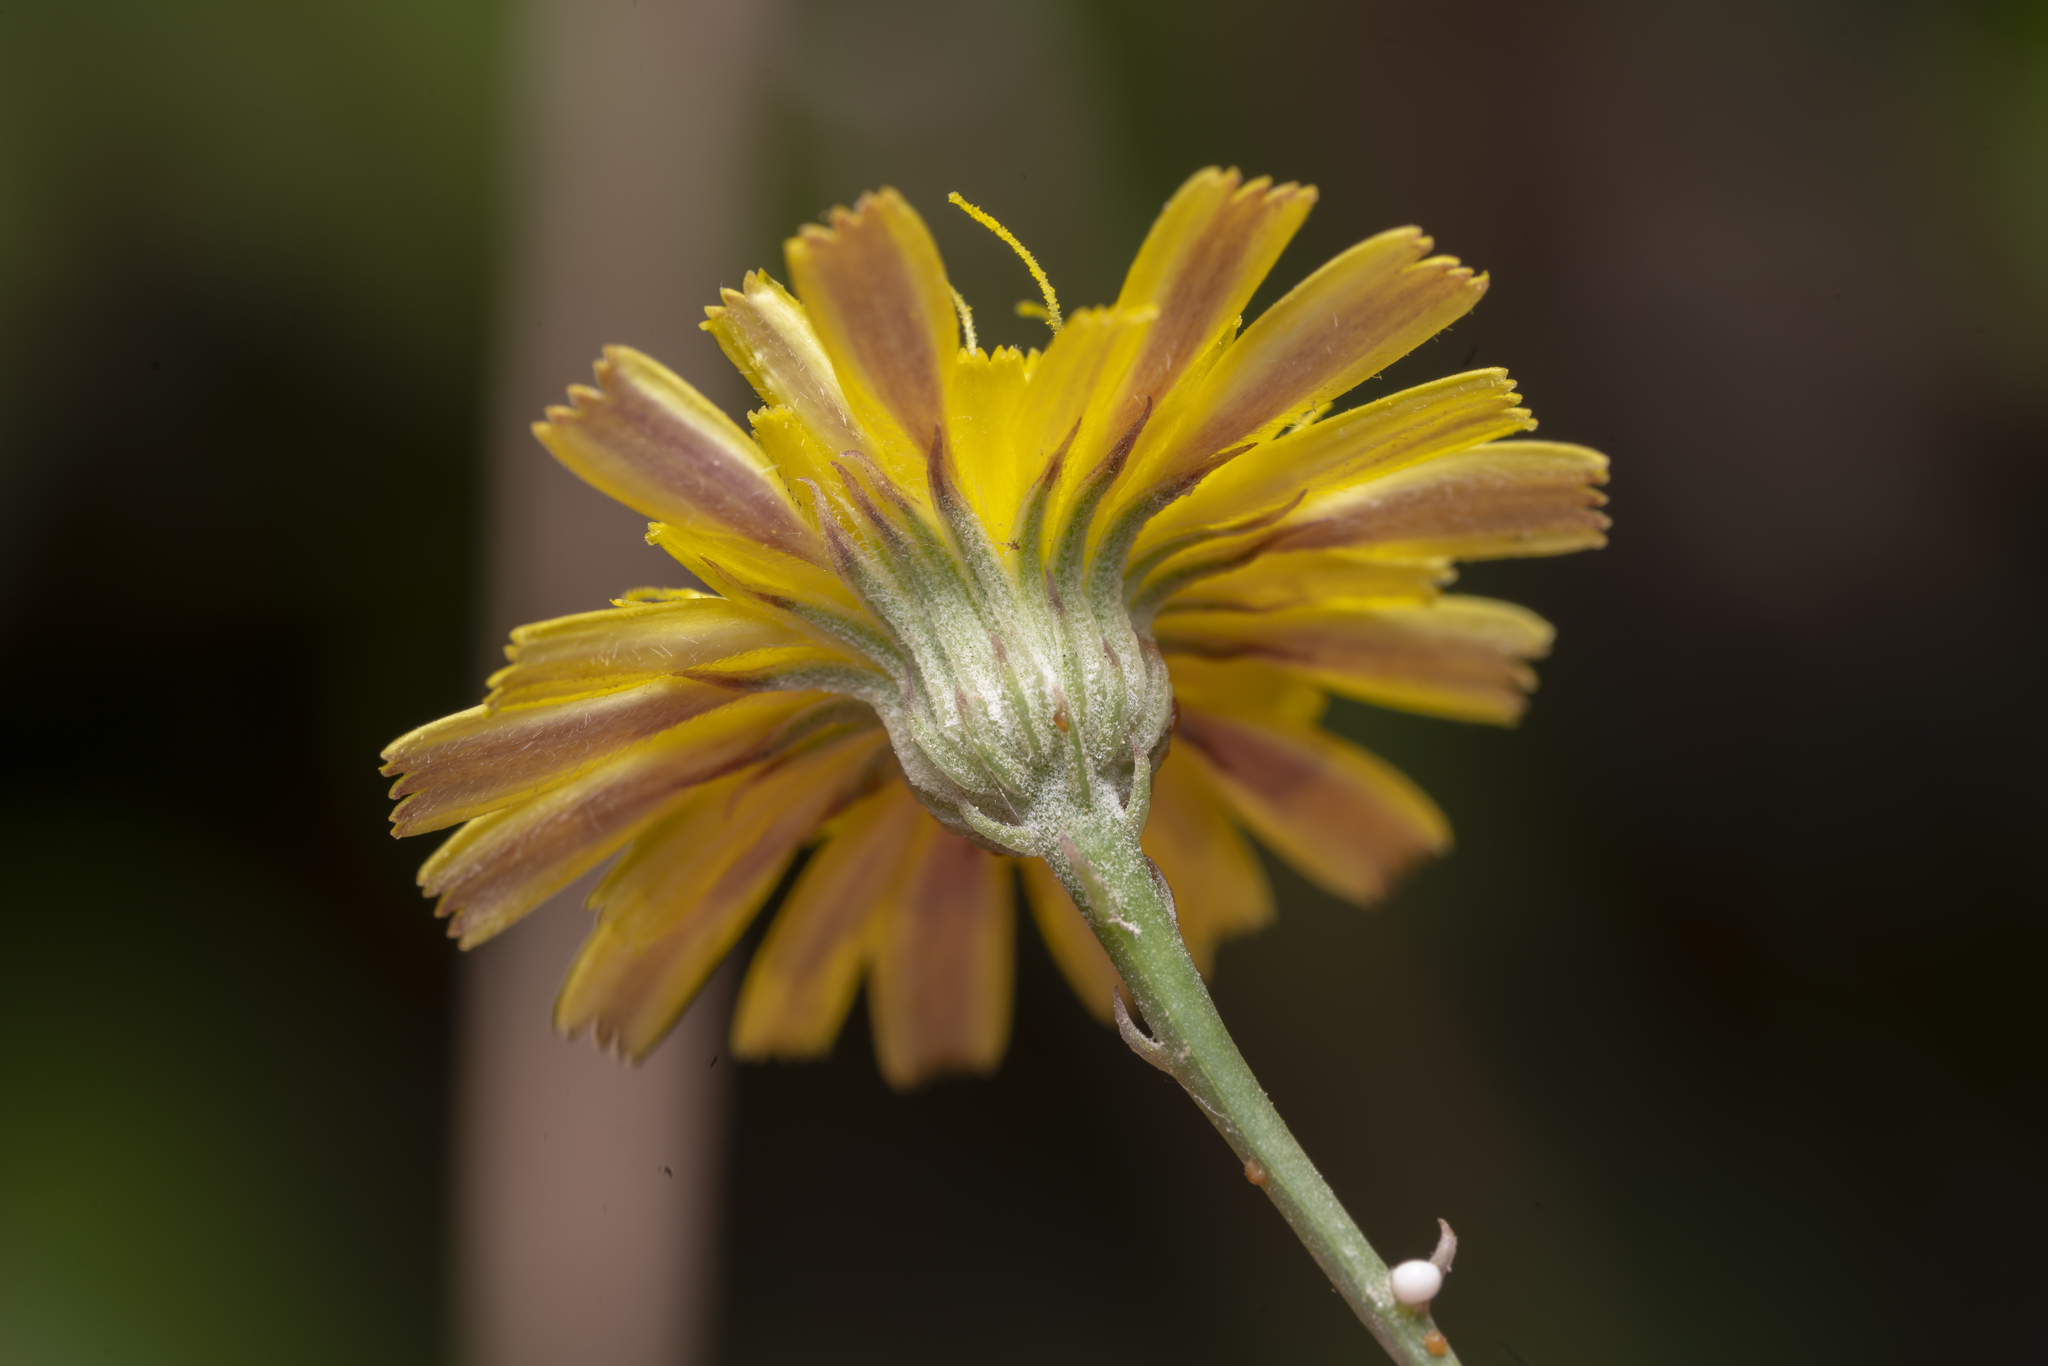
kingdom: Plantae
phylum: Tracheophyta
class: Magnoliopsida
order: Asterales
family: Asteraceae
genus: Tolpis
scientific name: Tolpis virgata
